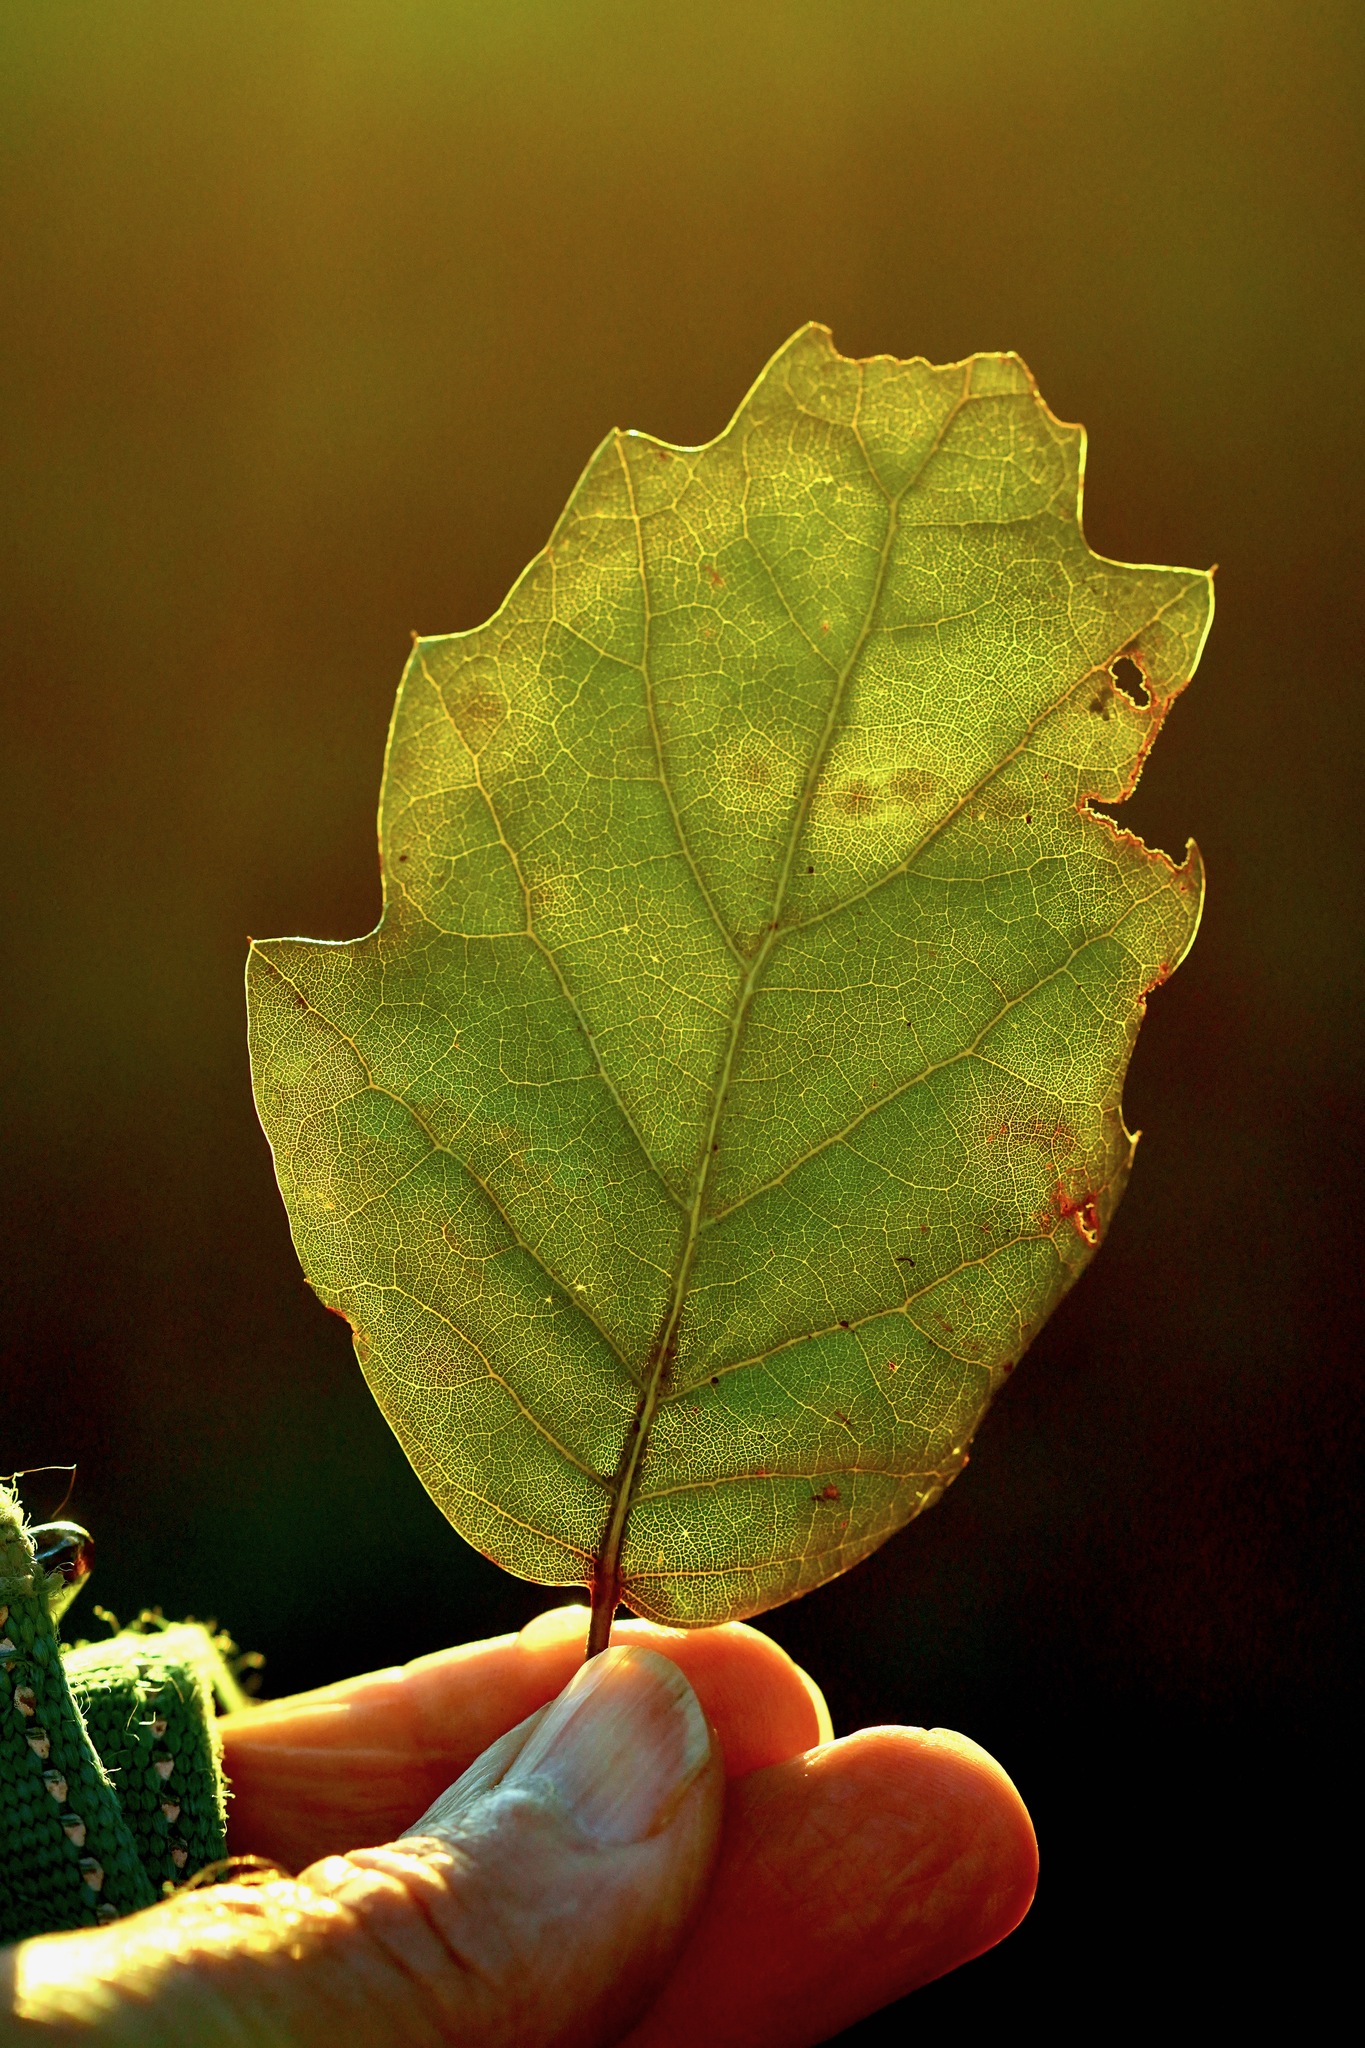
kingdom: Plantae
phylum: Tracheophyta
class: Magnoliopsida
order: Fagales
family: Fagaceae
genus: Quercus
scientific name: Quercus agrifolia
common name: California live oak
